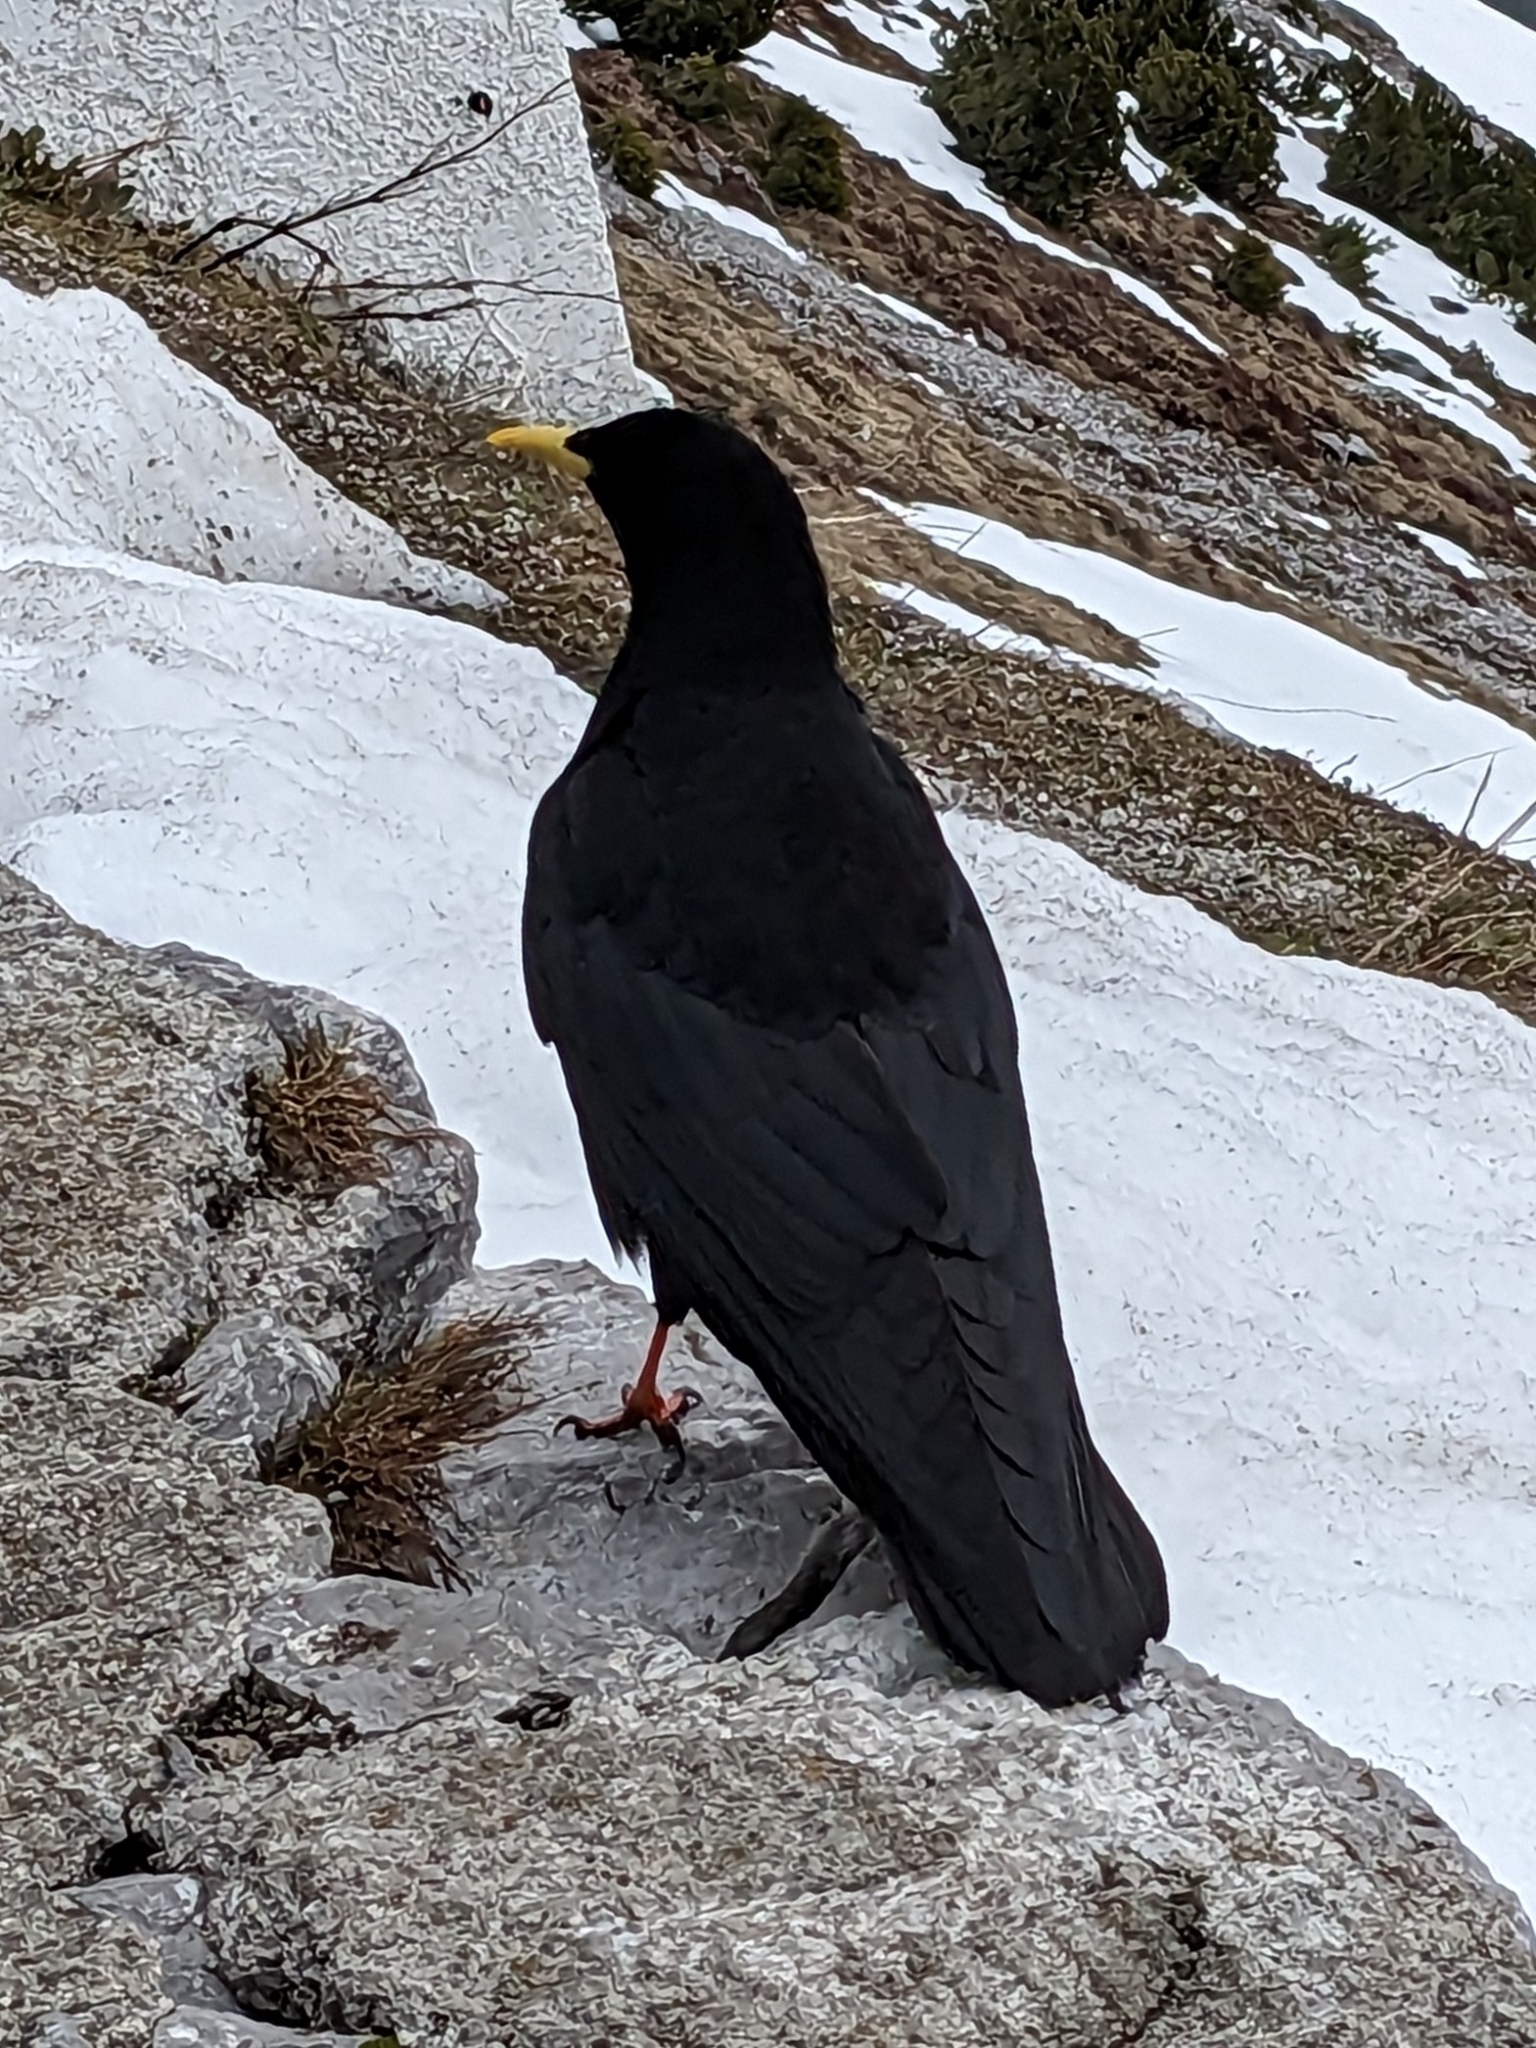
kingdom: Animalia
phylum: Chordata
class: Aves
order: Passeriformes
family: Corvidae
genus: Pyrrhocorax
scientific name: Pyrrhocorax graculus
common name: Alpine chough
